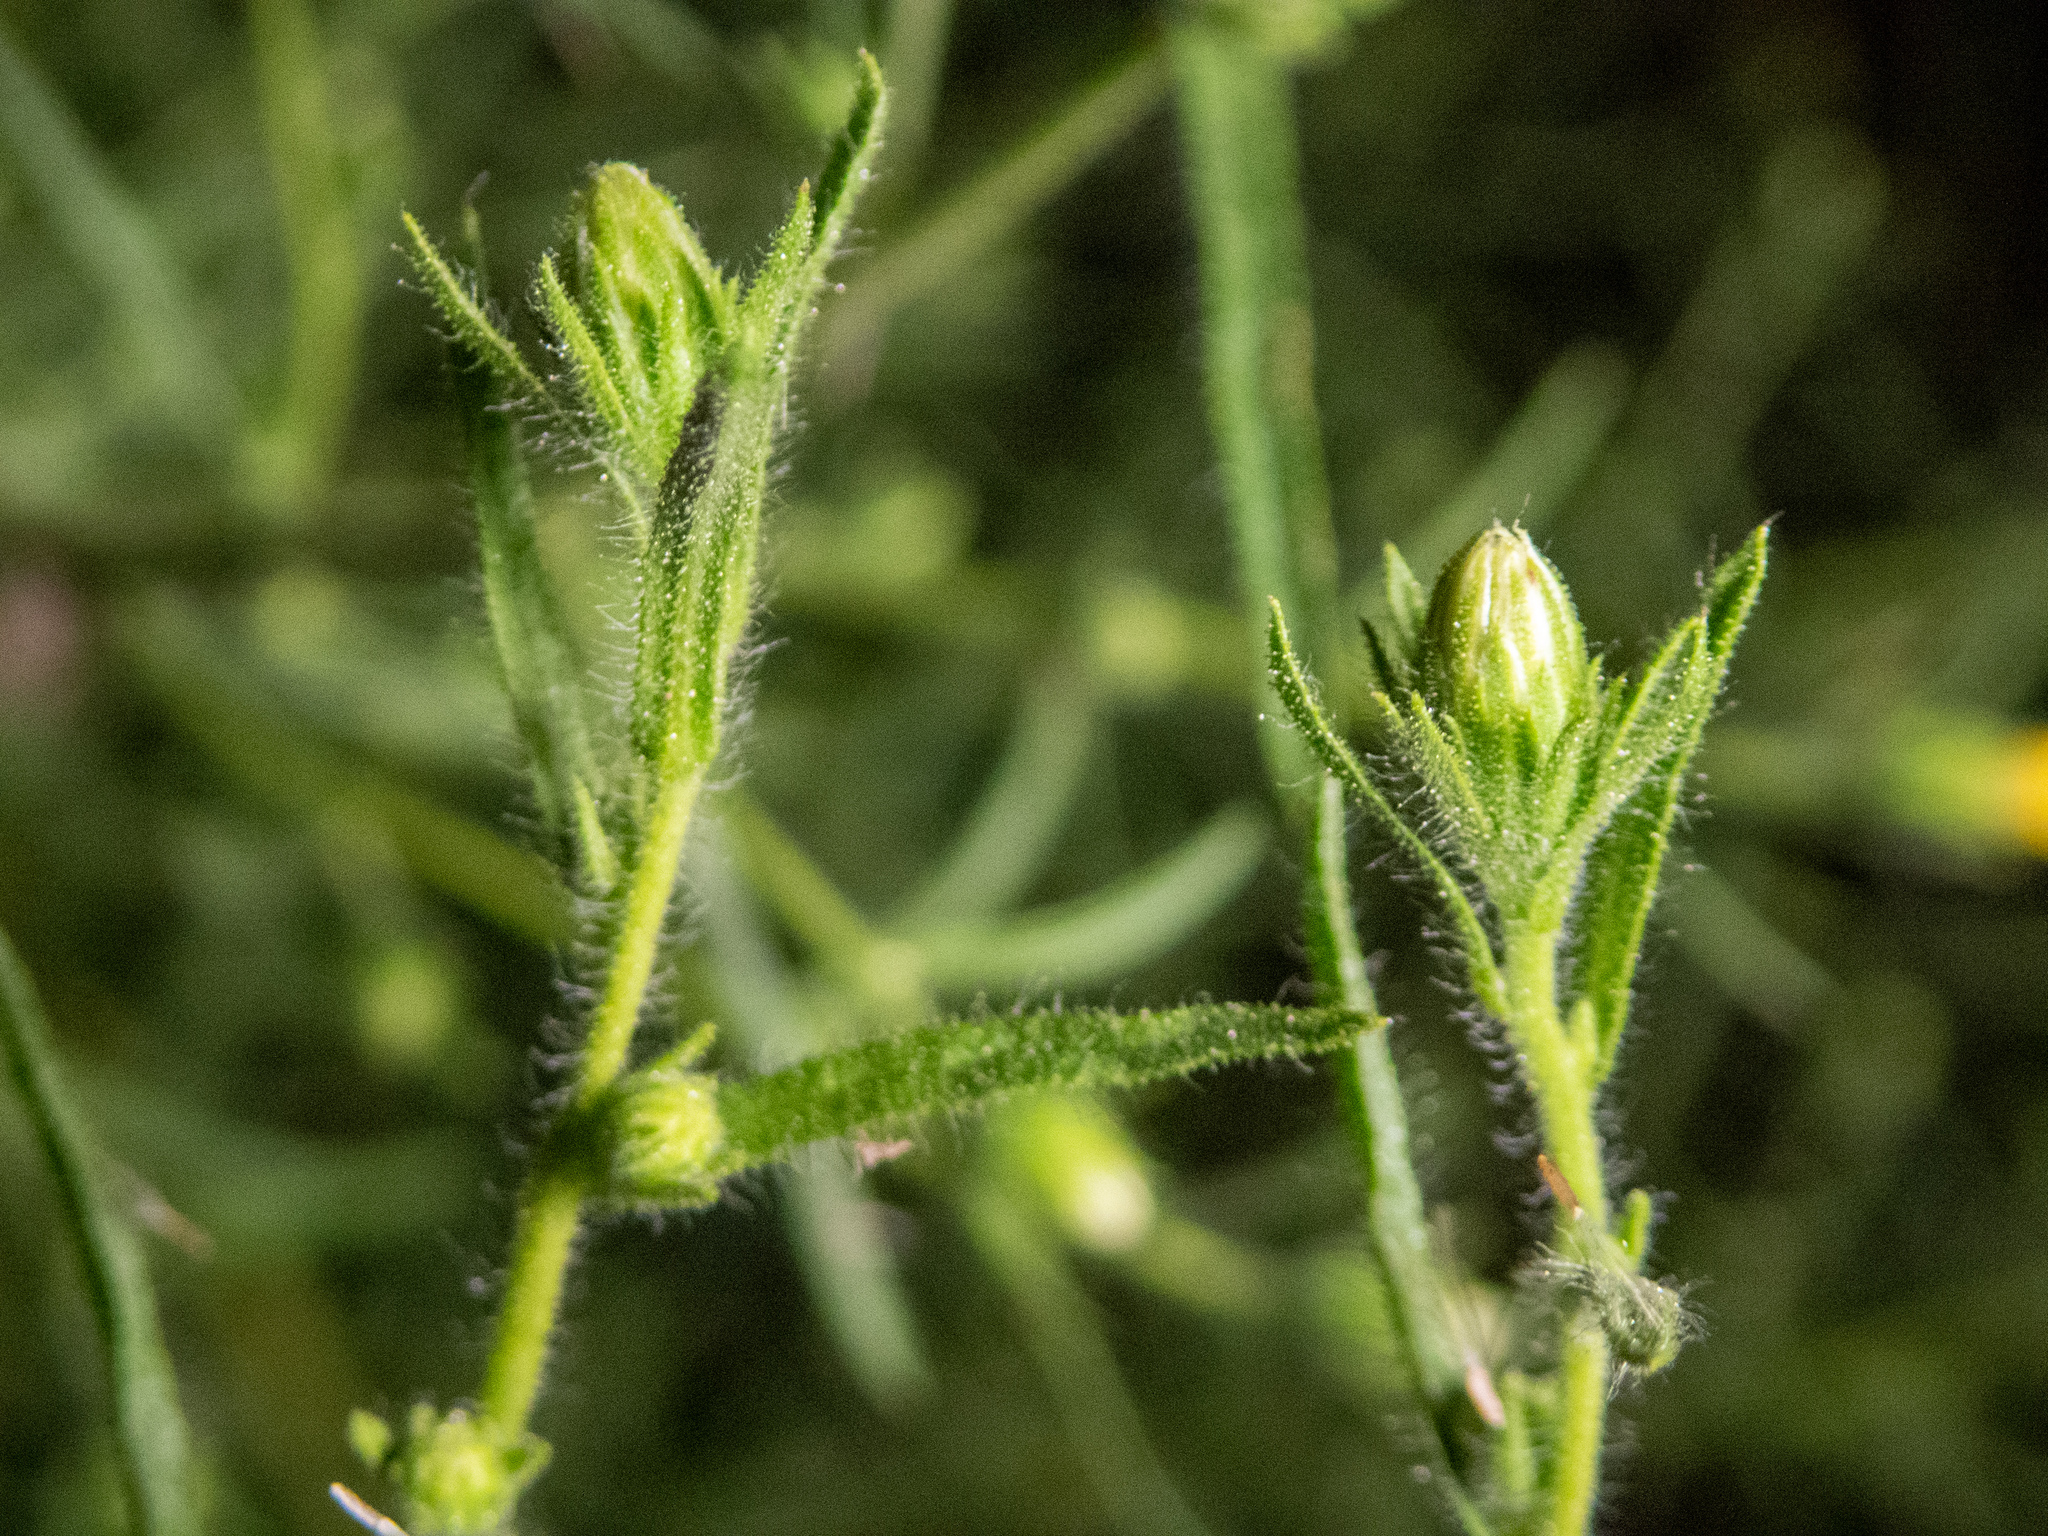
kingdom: Plantae
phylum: Tracheophyta
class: Magnoliopsida
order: Asterales
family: Asteraceae
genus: Dittrichia
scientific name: Dittrichia graveolens
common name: Stinking fleabane
